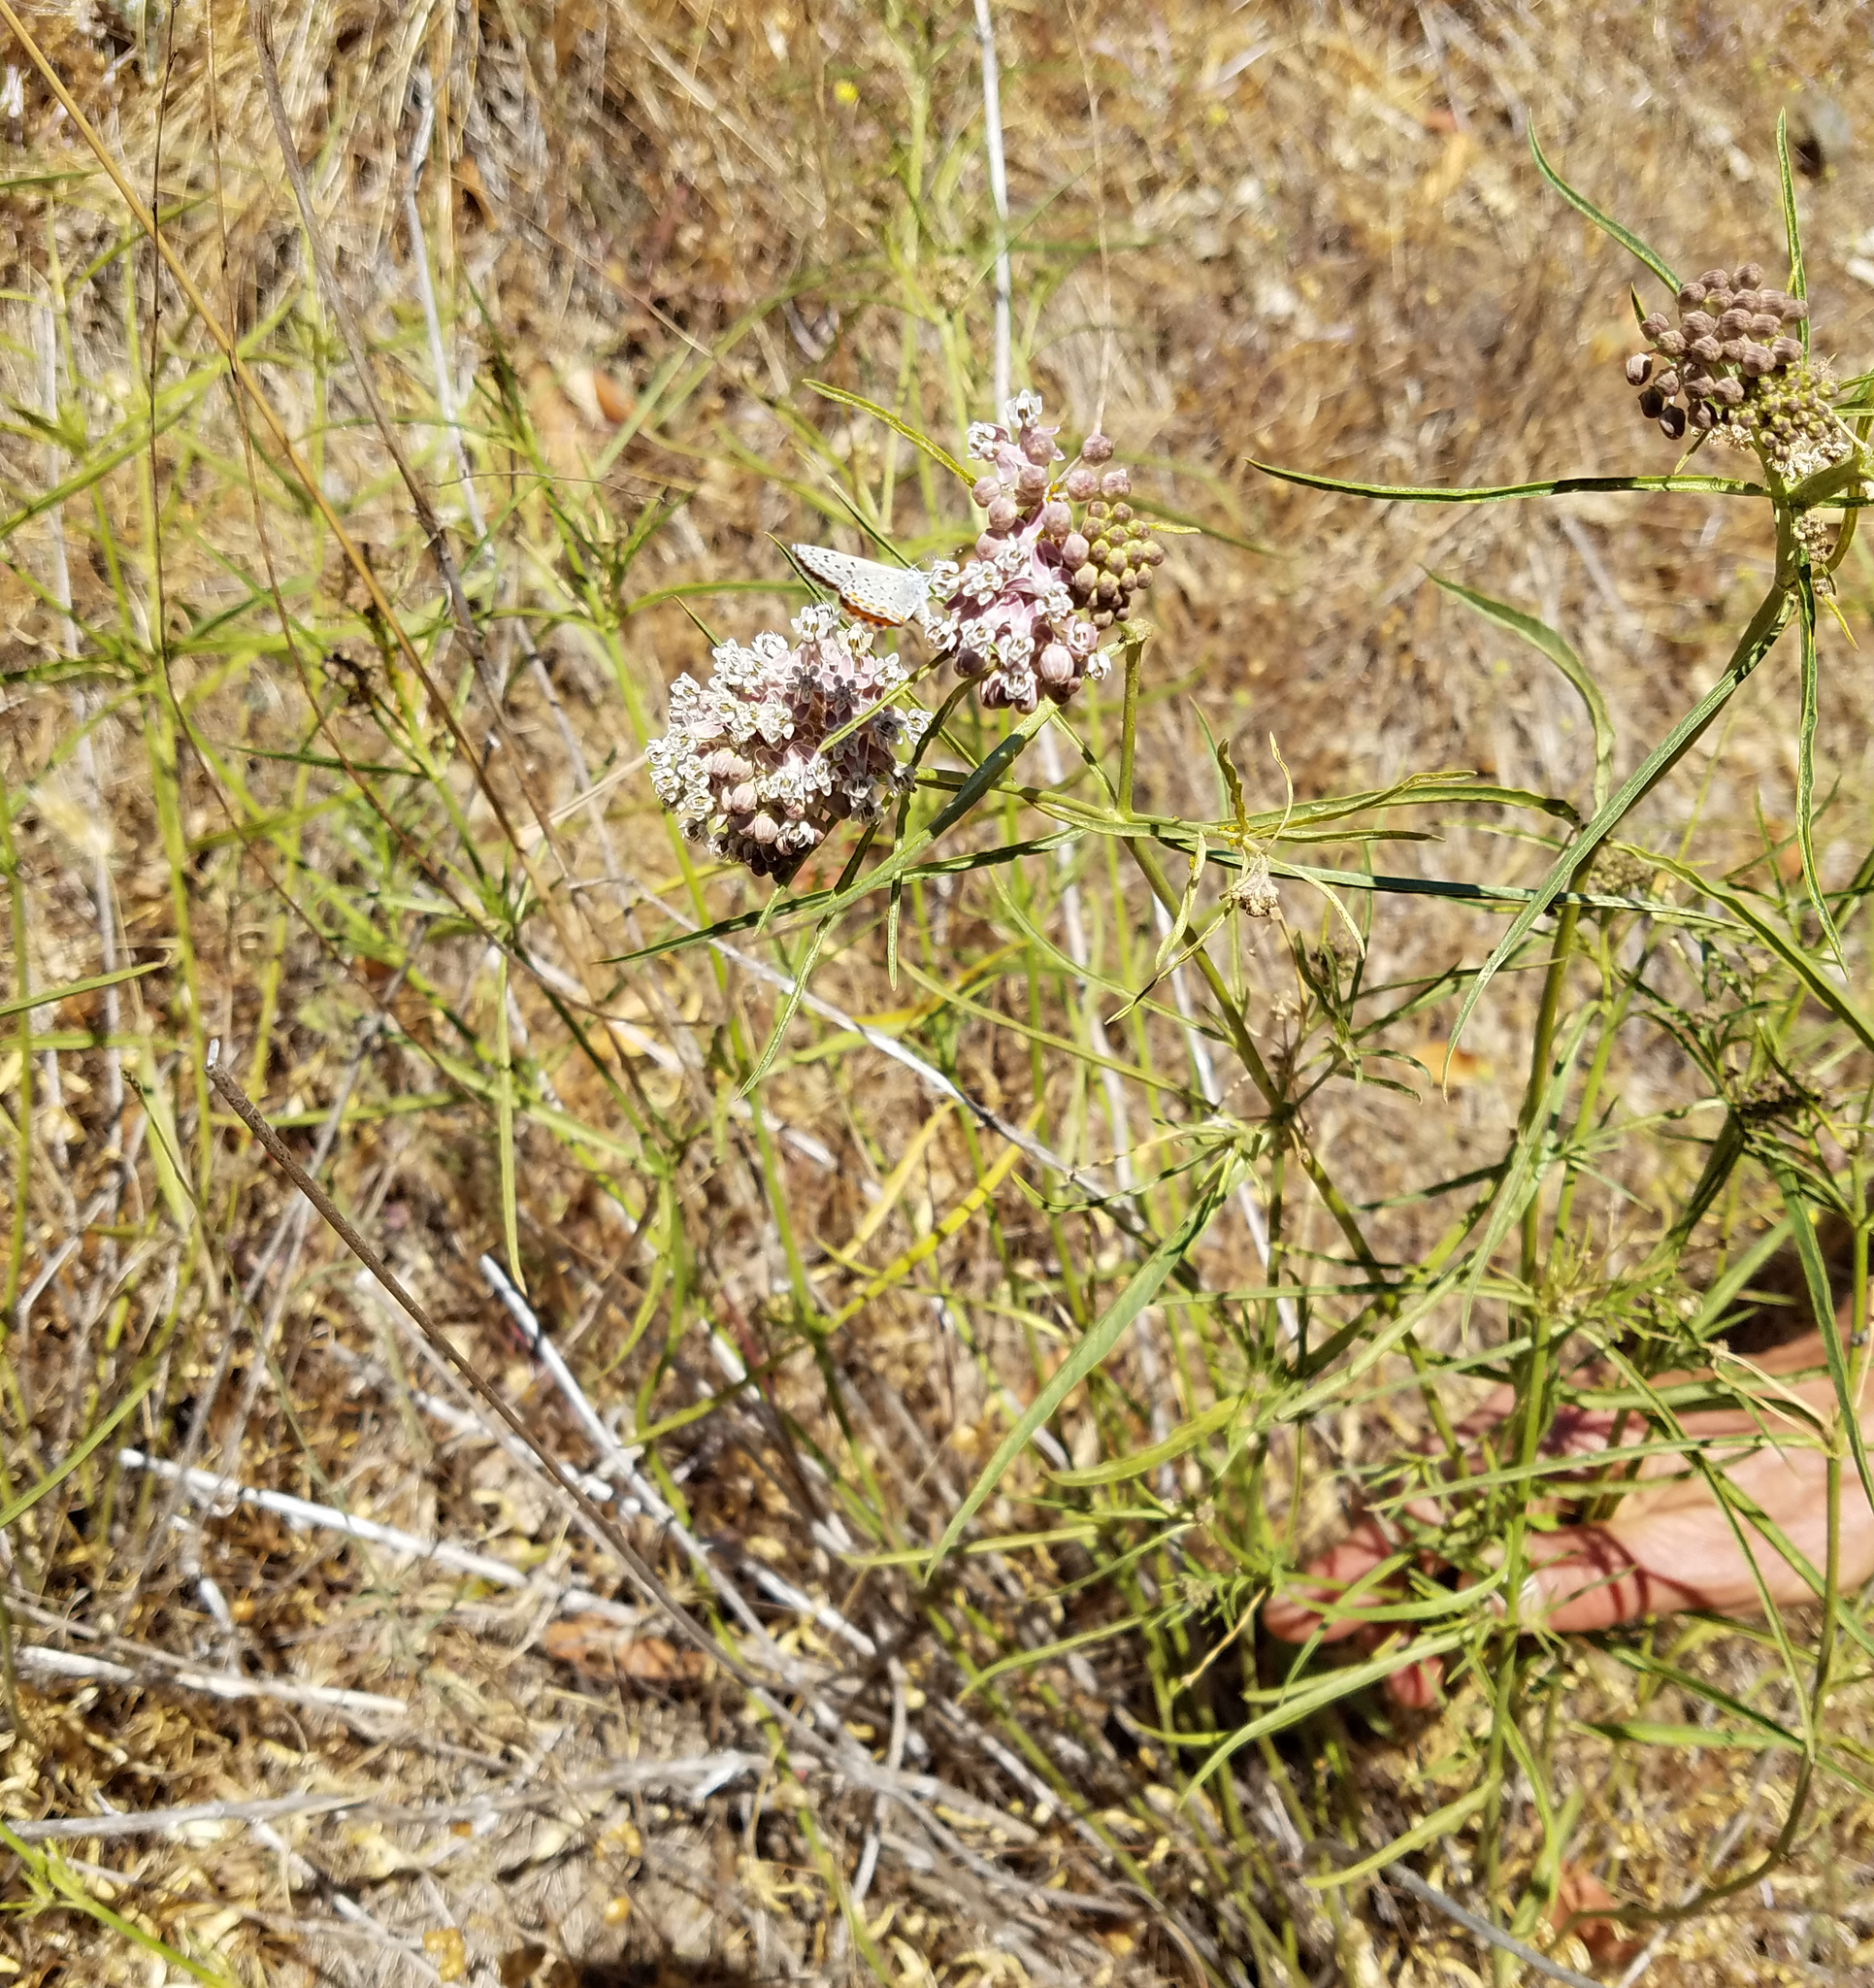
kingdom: Plantae
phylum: Tracheophyta
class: Magnoliopsida
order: Gentianales
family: Apocynaceae
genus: Asclepias
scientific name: Asclepias fascicularis
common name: Mexican milkweed
